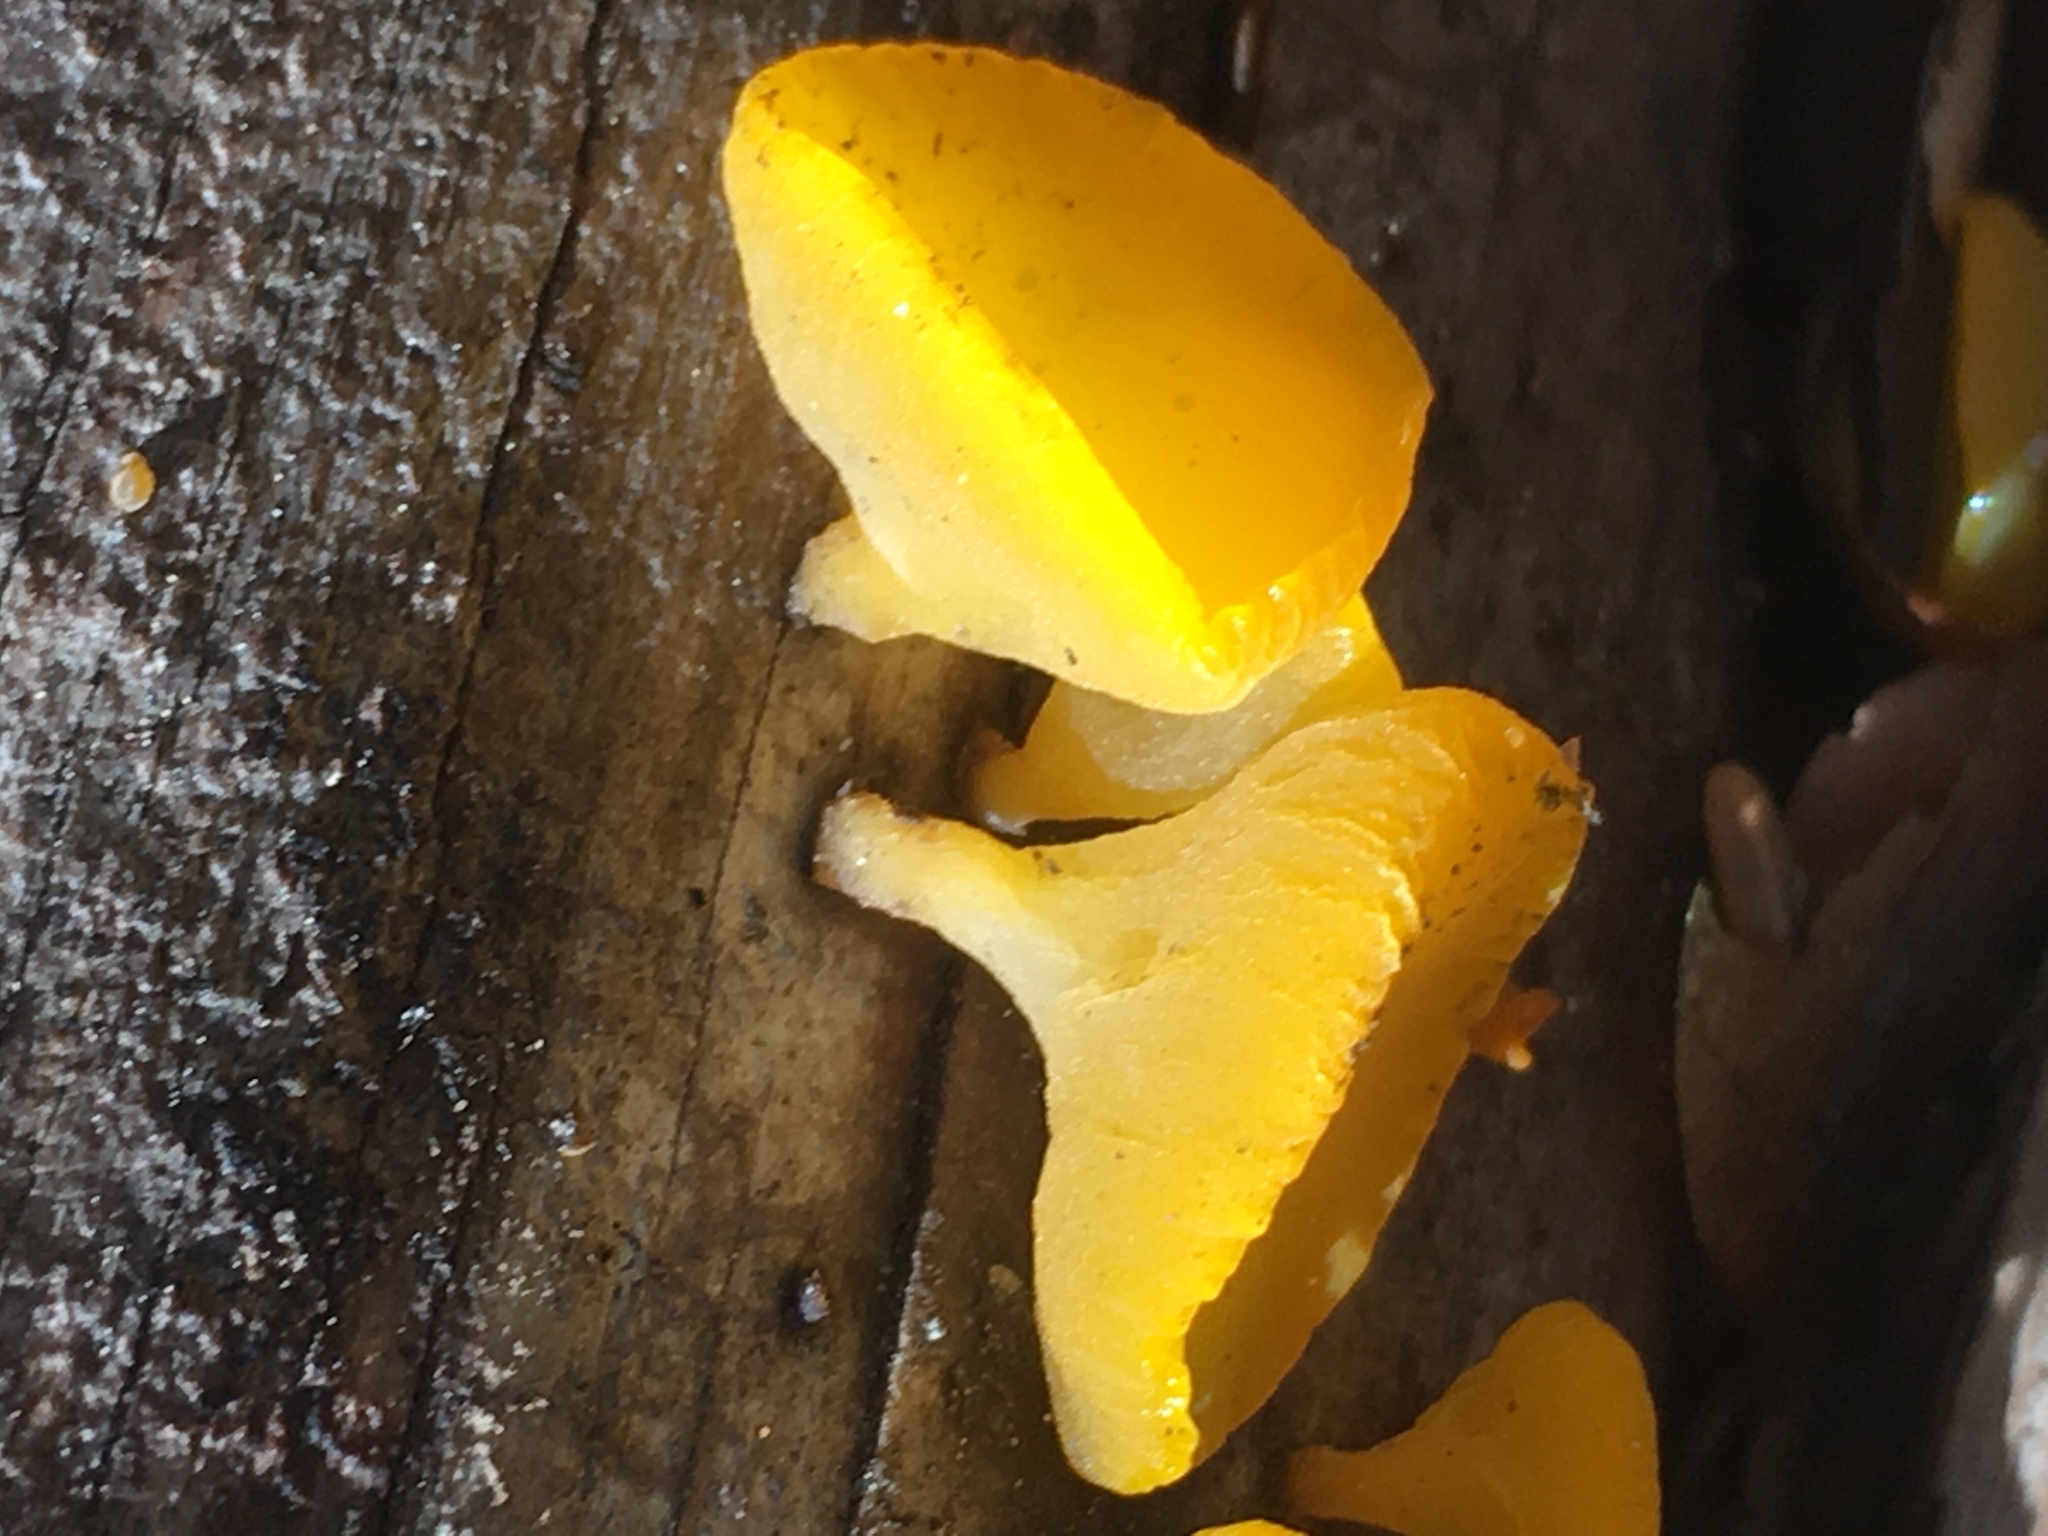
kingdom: Fungi
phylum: Basidiomycota
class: Dacrymycetes
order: Dacrymycetales
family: Dacrymycetaceae
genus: Guepiniopsis
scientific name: Guepiniopsis alpina
